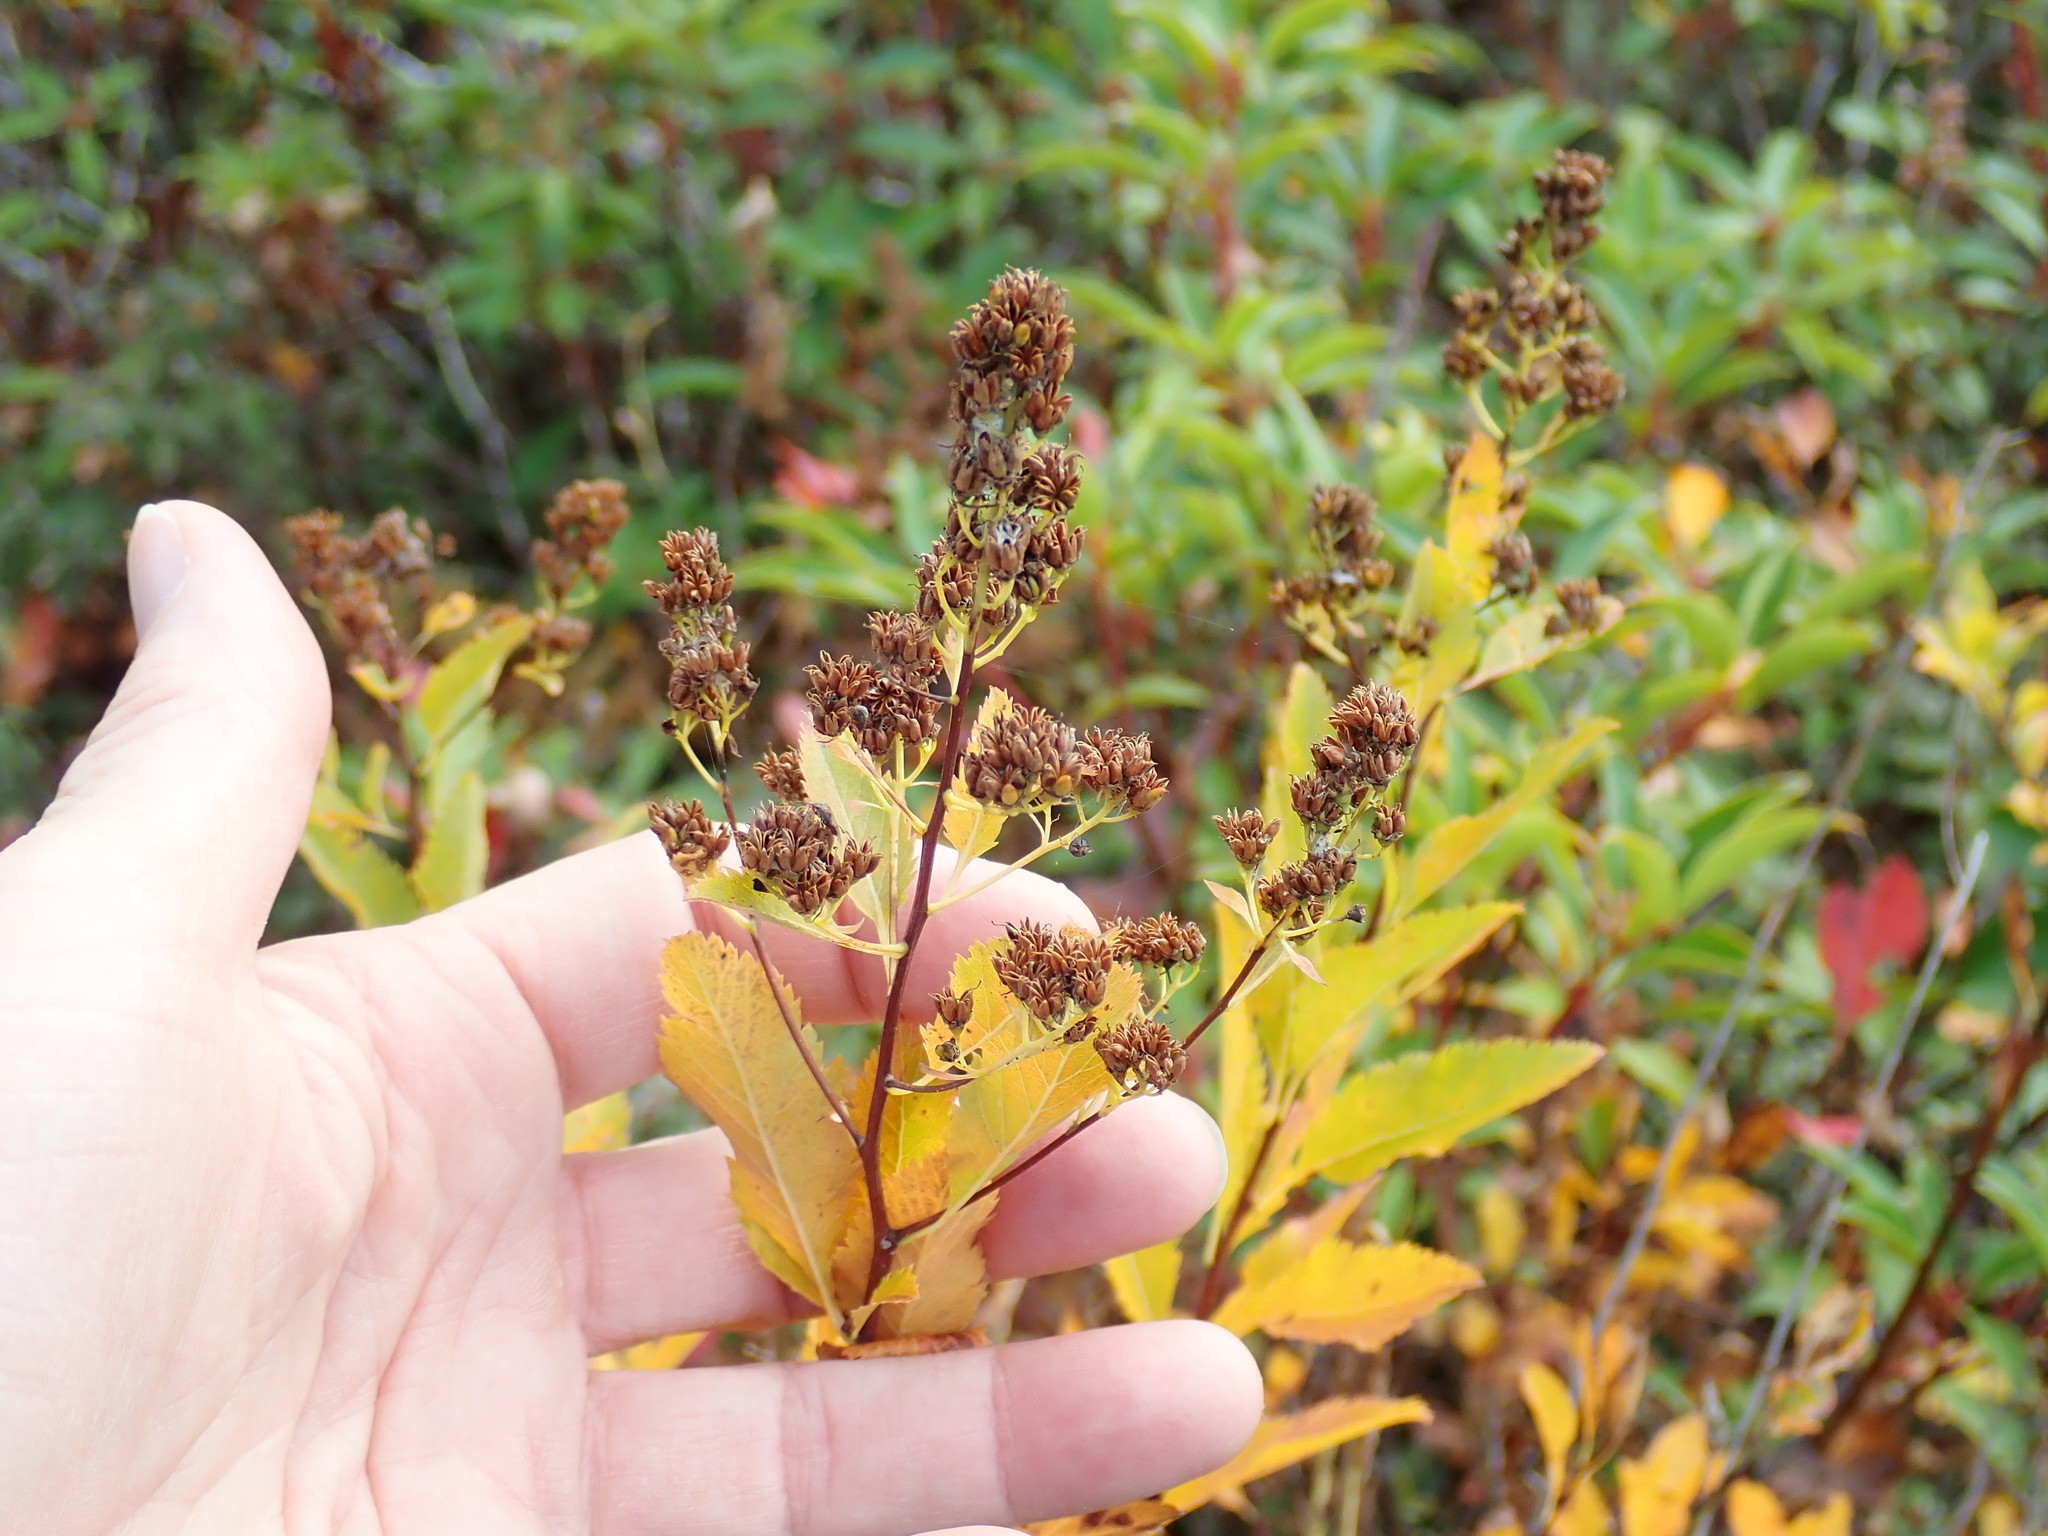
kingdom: Plantae
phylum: Tracheophyta
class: Magnoliopsida
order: Rosales
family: Rosaceae
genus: Spiraea
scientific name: Spiraea alba
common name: Pale bridewort
